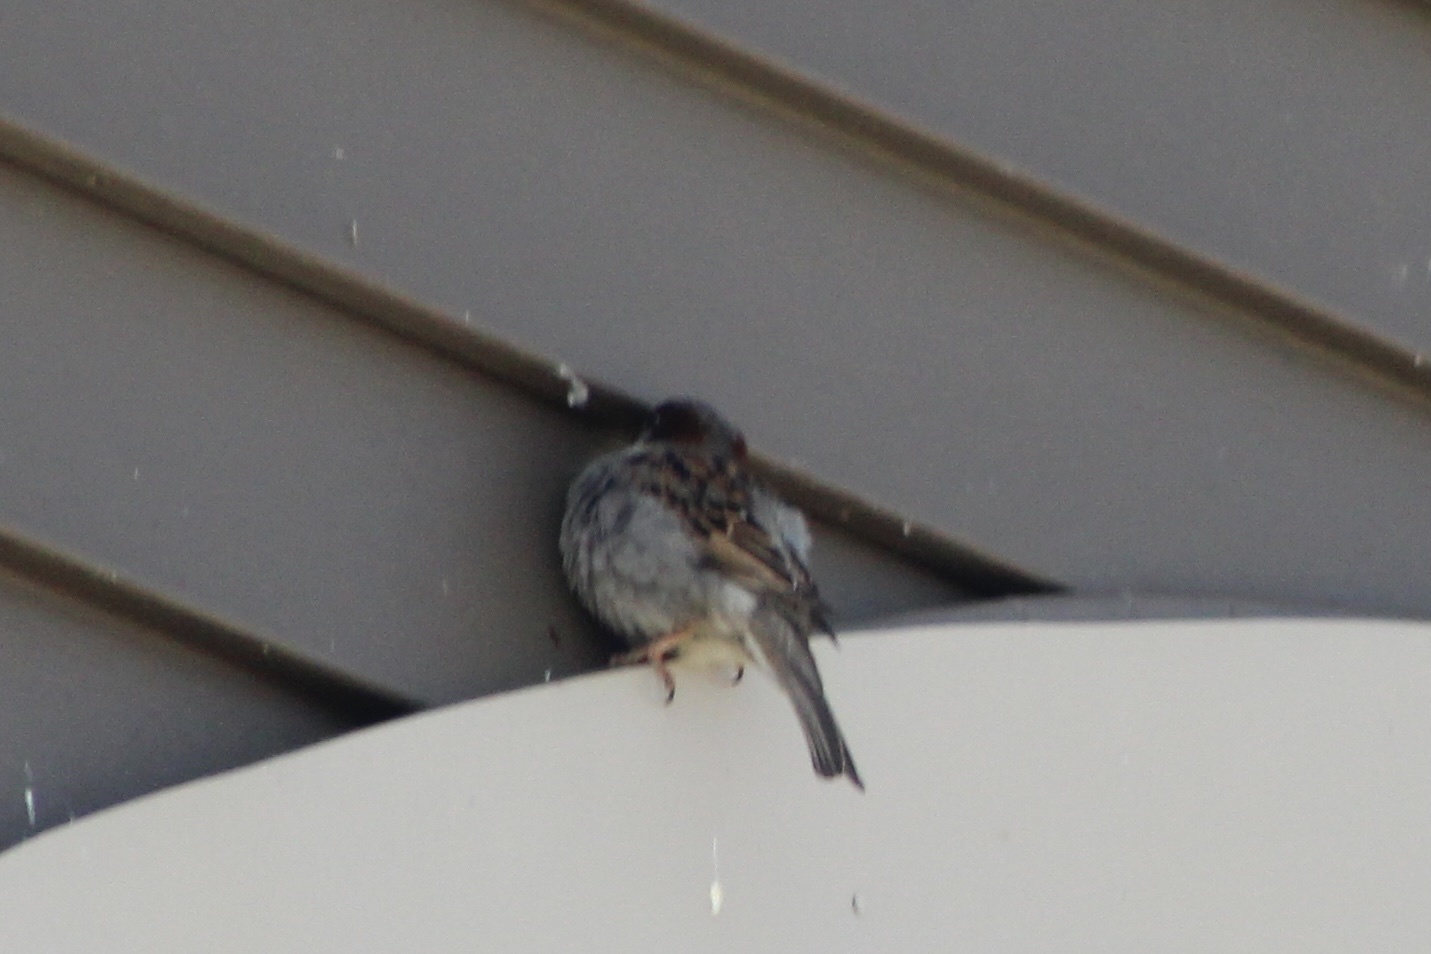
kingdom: Animalia
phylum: Chordata
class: Aves
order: Passeriformes
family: Passeridae
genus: Passer
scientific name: Passer domesticus
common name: House sparrow
